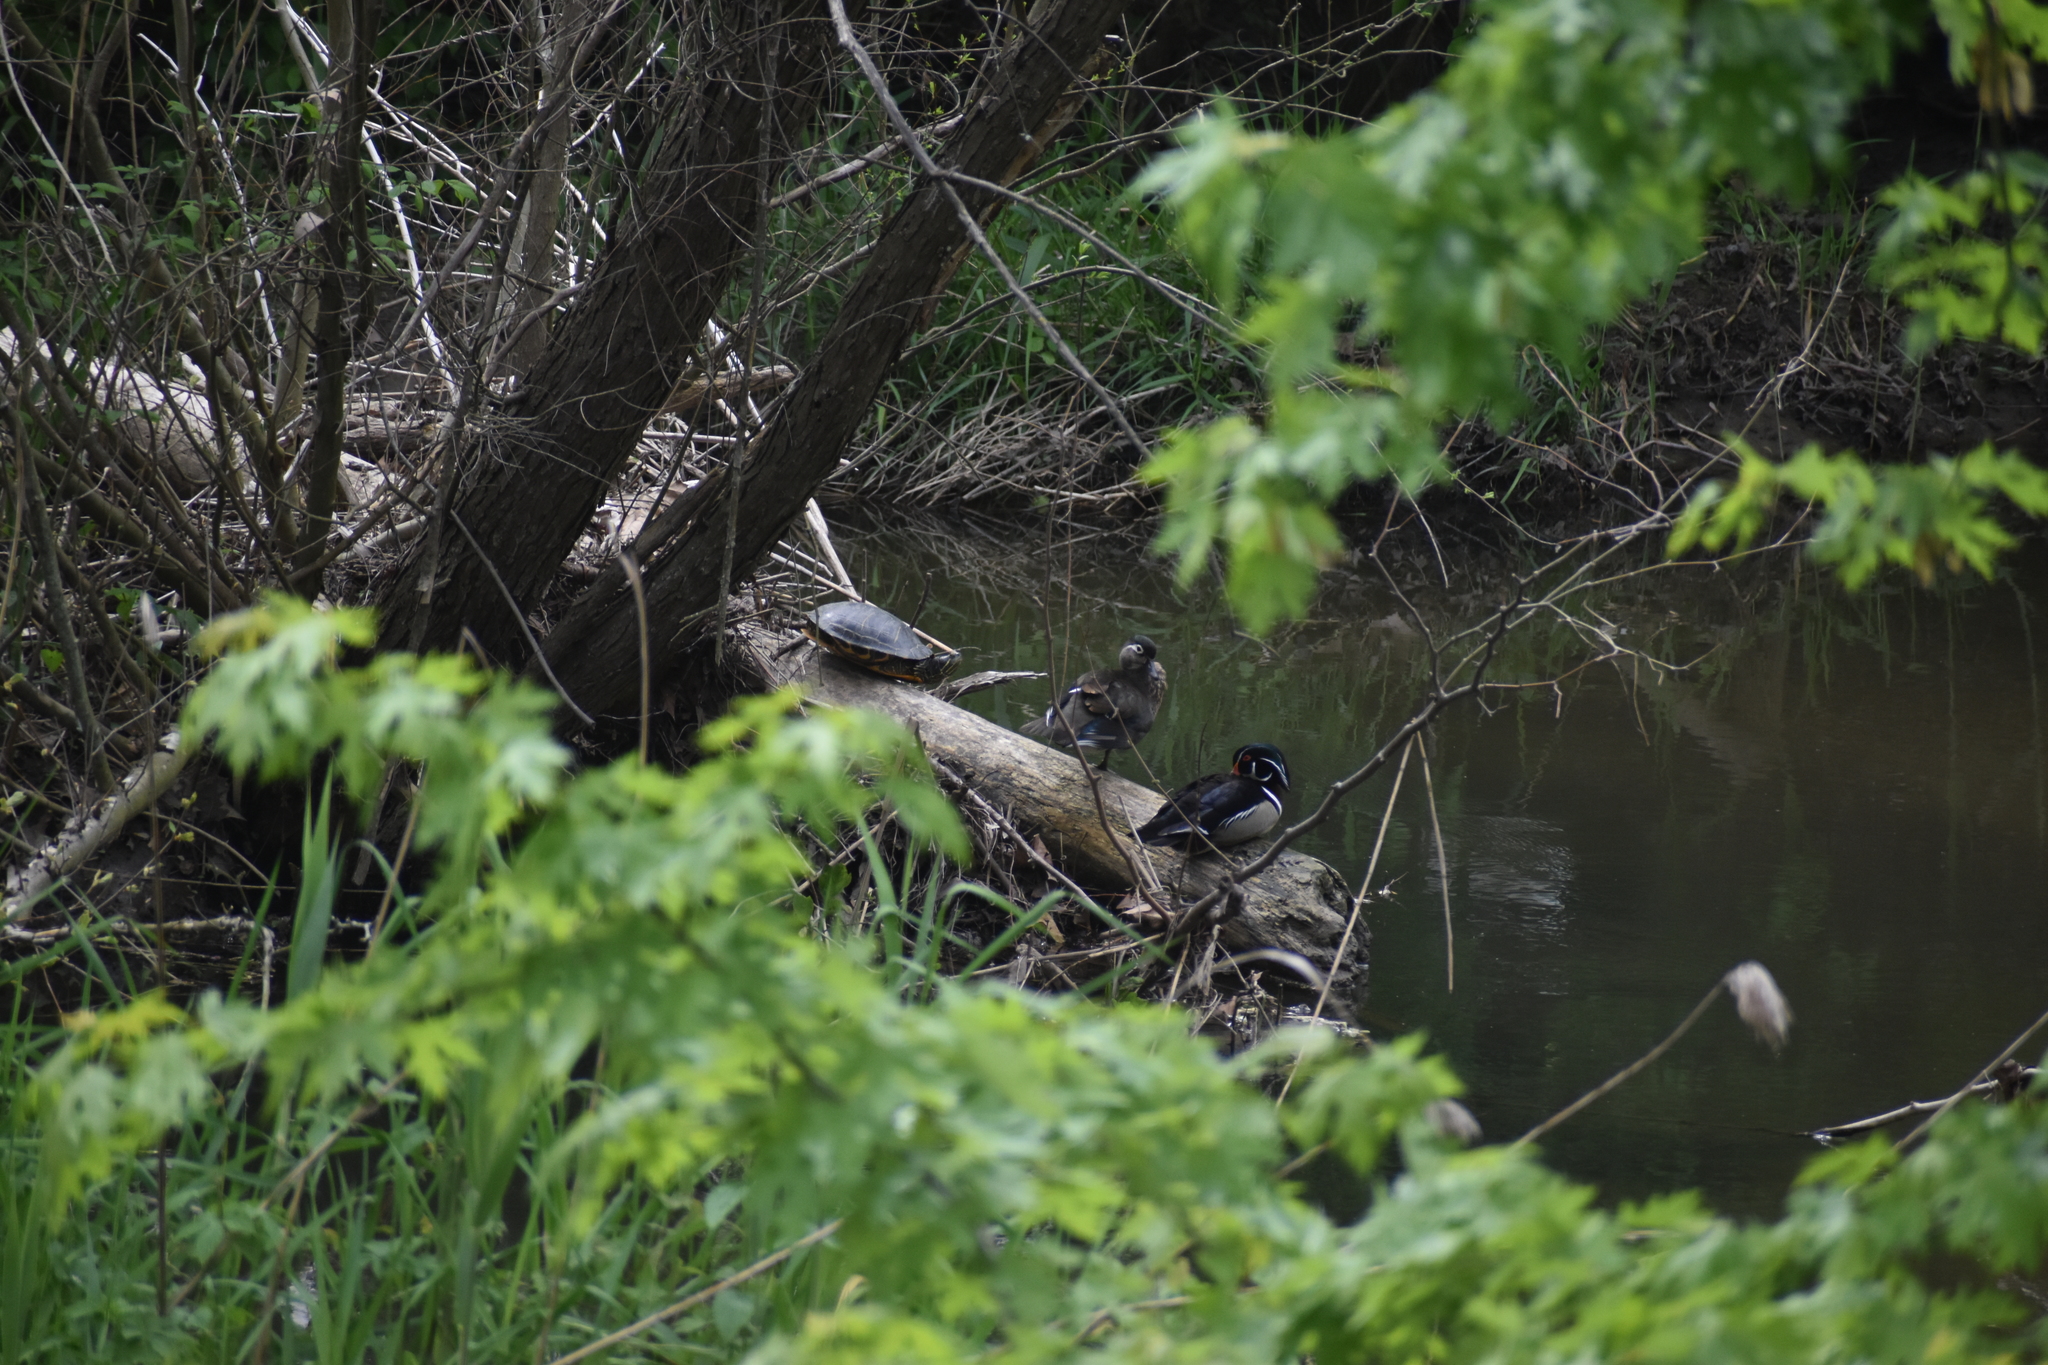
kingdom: Animalia
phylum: Chordata
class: Aves
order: Anseriformes
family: Anatidae
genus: Aix
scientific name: Aix sponsa
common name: Wood duck
